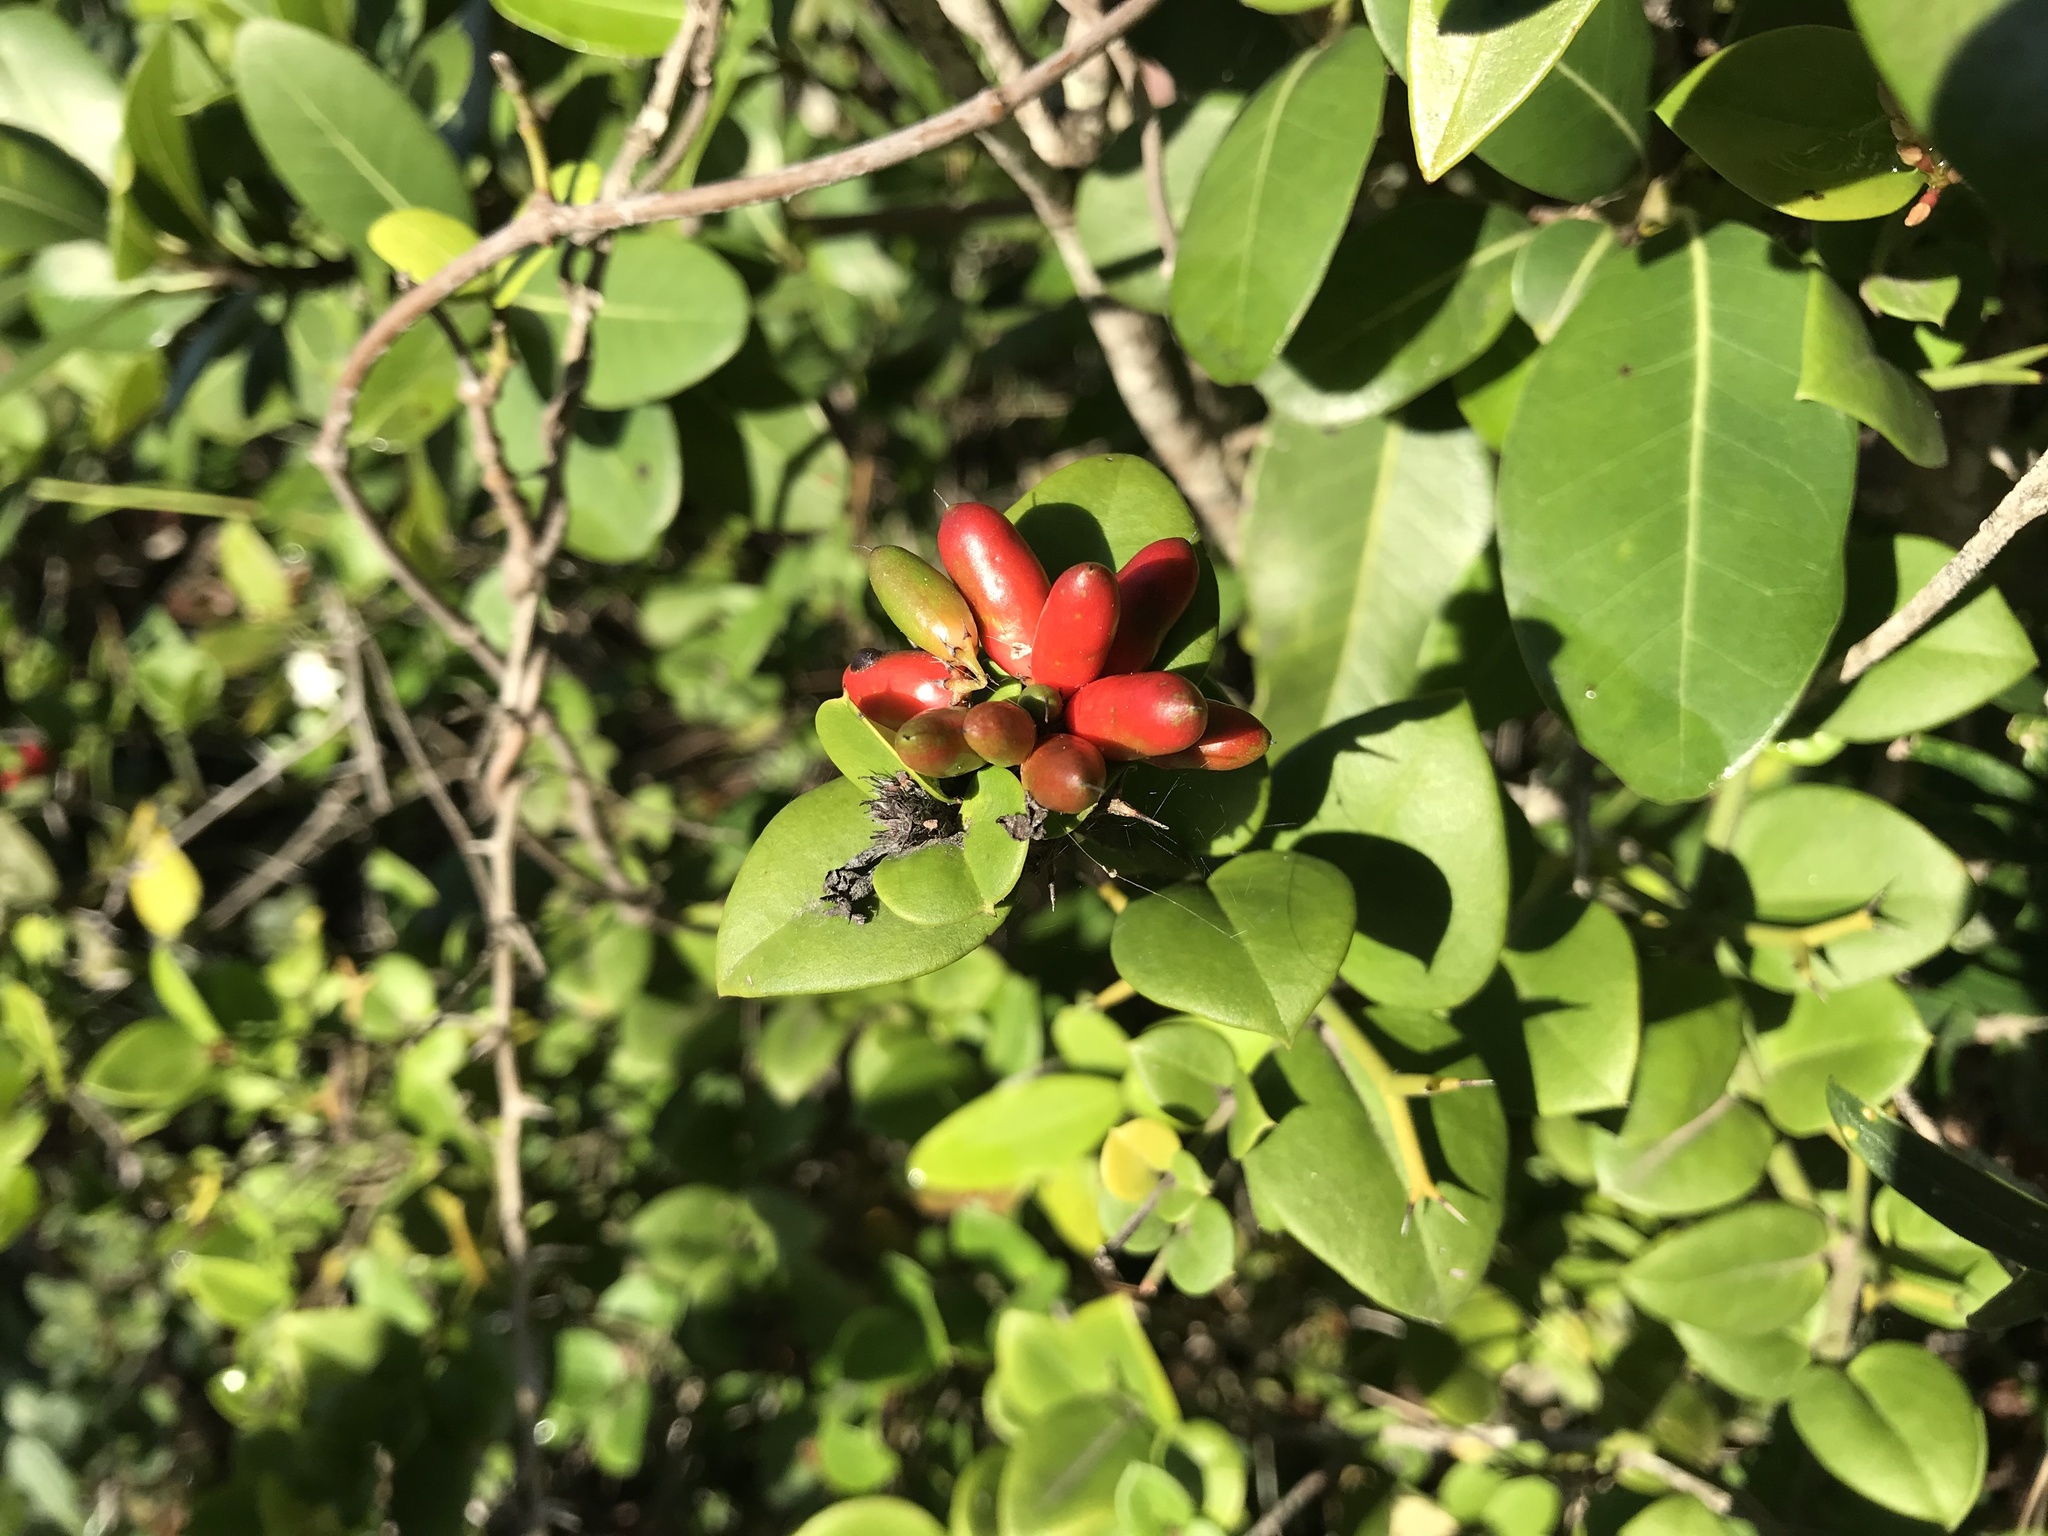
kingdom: Plantae
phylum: Tracheophyta
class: Magnoliopsida
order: Gentianales
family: Apocynaceae
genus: Carissa
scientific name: Carissa bispinosa
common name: Forest num-num
